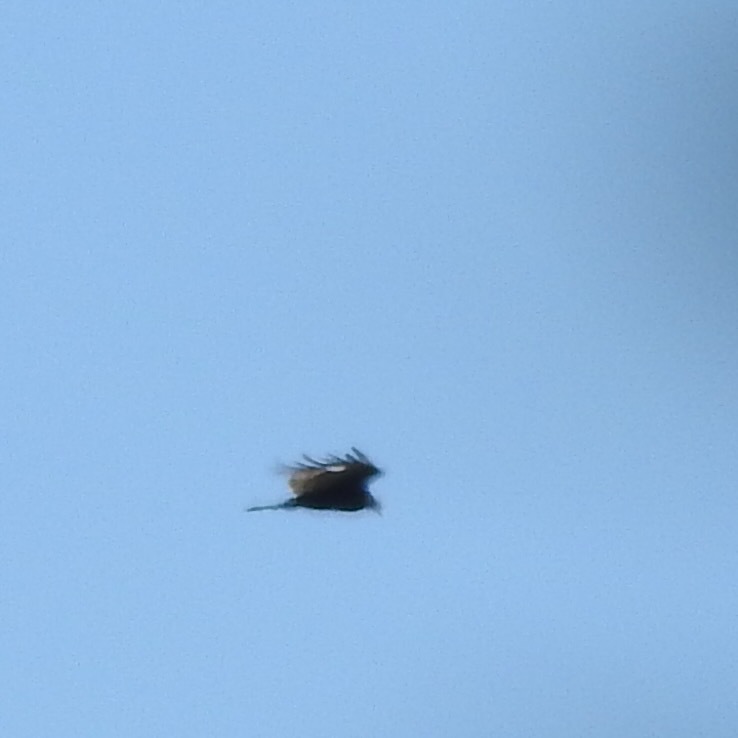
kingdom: Animalia
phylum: Chordata
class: Aves
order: Accipitriformes
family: Cathartidae
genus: Cathartes
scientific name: Cathartes aura
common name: Turkey vulture
